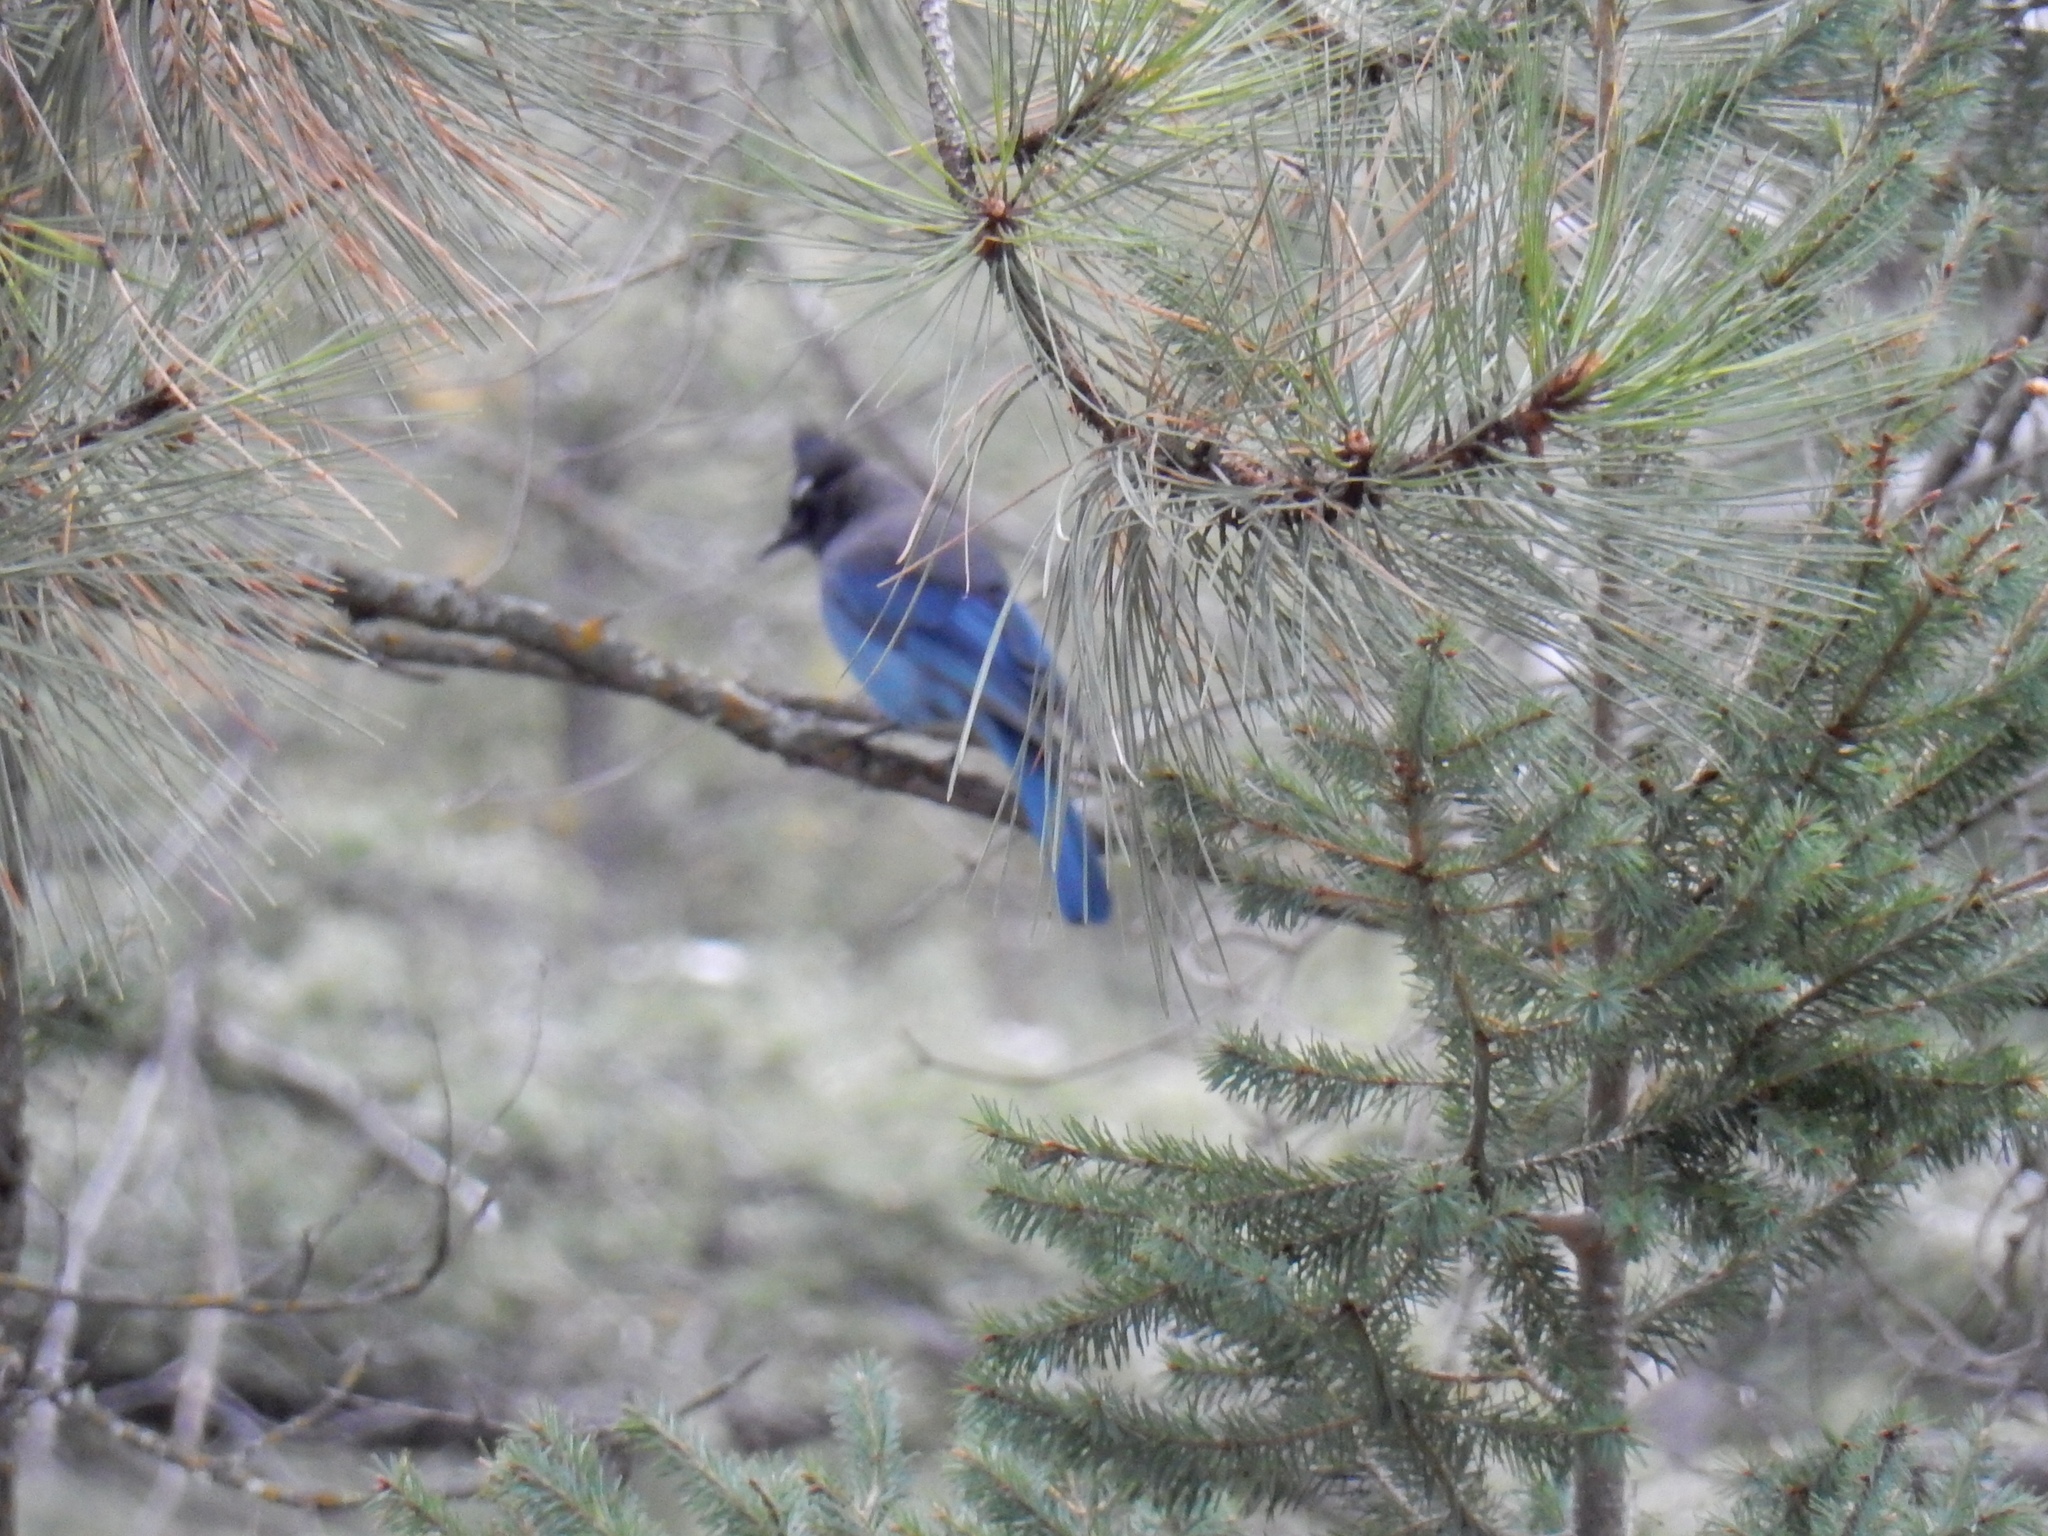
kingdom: Animalia
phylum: Chordata
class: Aves
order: Passeriformes
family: Corvidae
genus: Cyanocitta
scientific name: Cyanocitta stelleri
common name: Steller's jay
